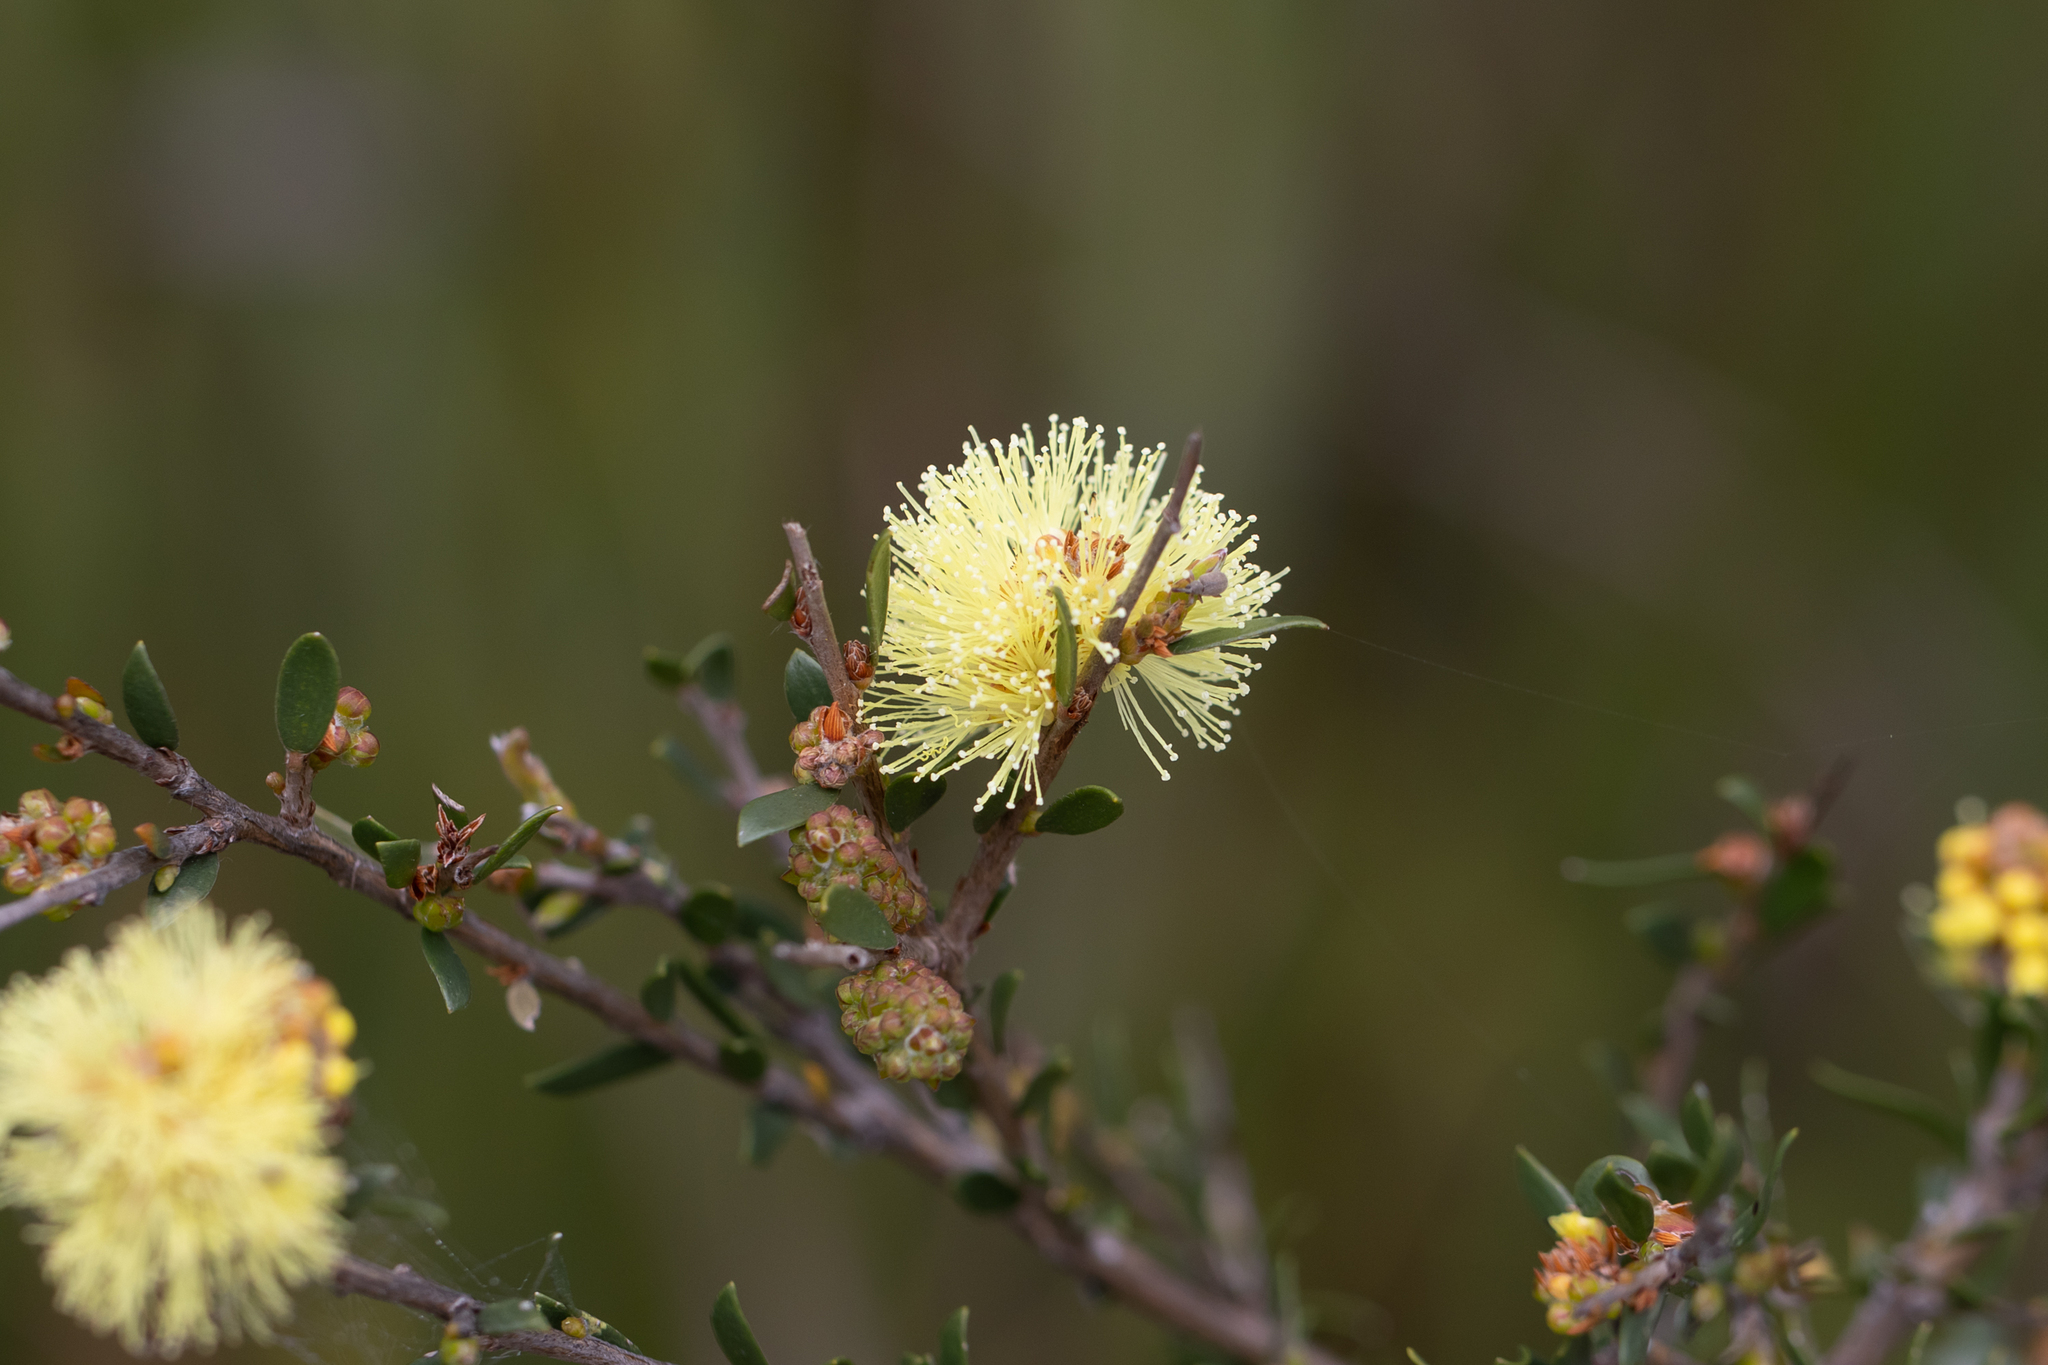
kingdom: Plantae
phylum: Tracheophyta
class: Magnoliopsida
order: Myrtales
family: Myrtaceae
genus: Melaleuca
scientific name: Melaleuca thymoides
